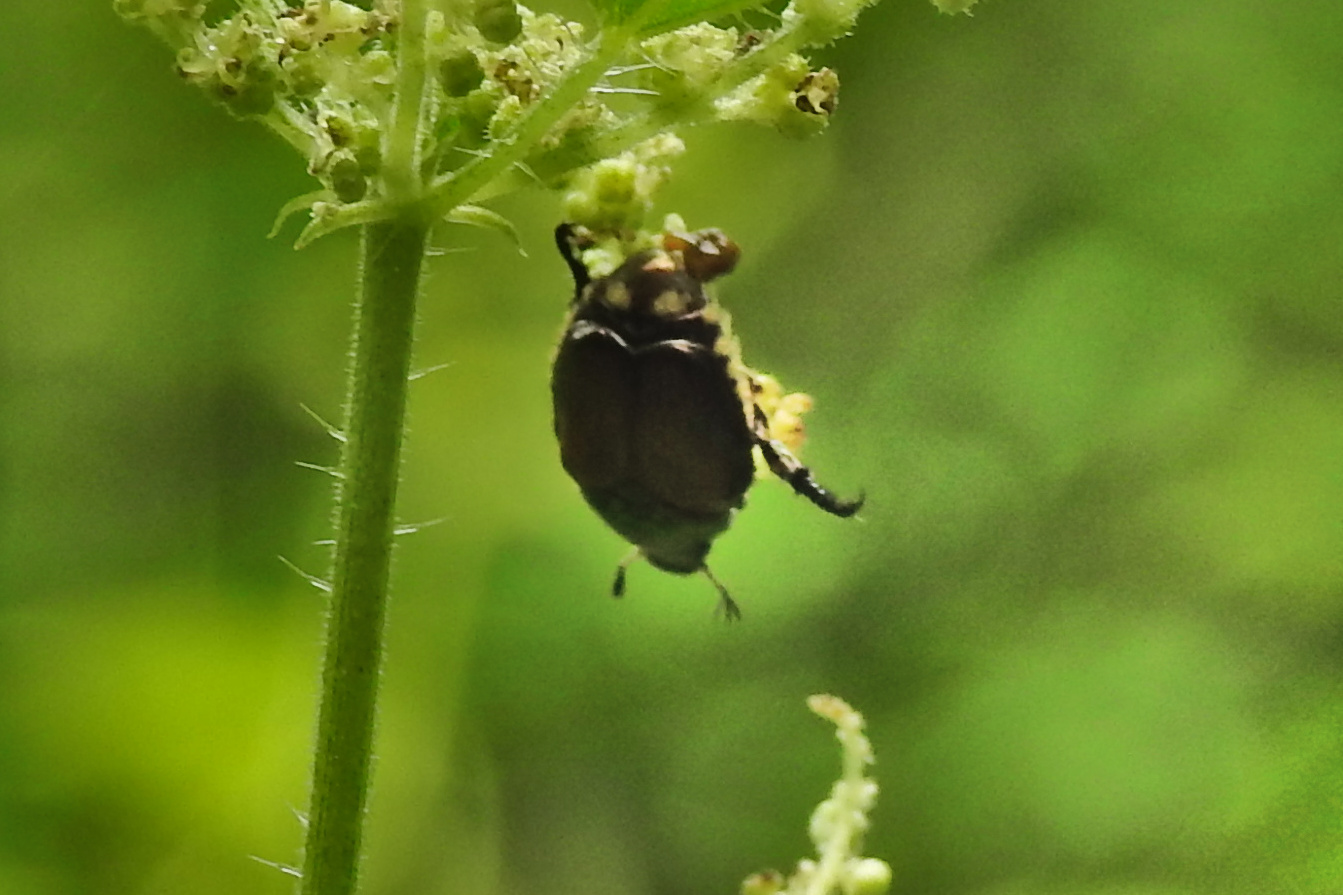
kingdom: Animalia
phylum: Arthropoda
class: Insecta
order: Coleoptera
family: Scarabaeidae
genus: Popillia
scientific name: Popillia japonica
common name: Japanese beetle
